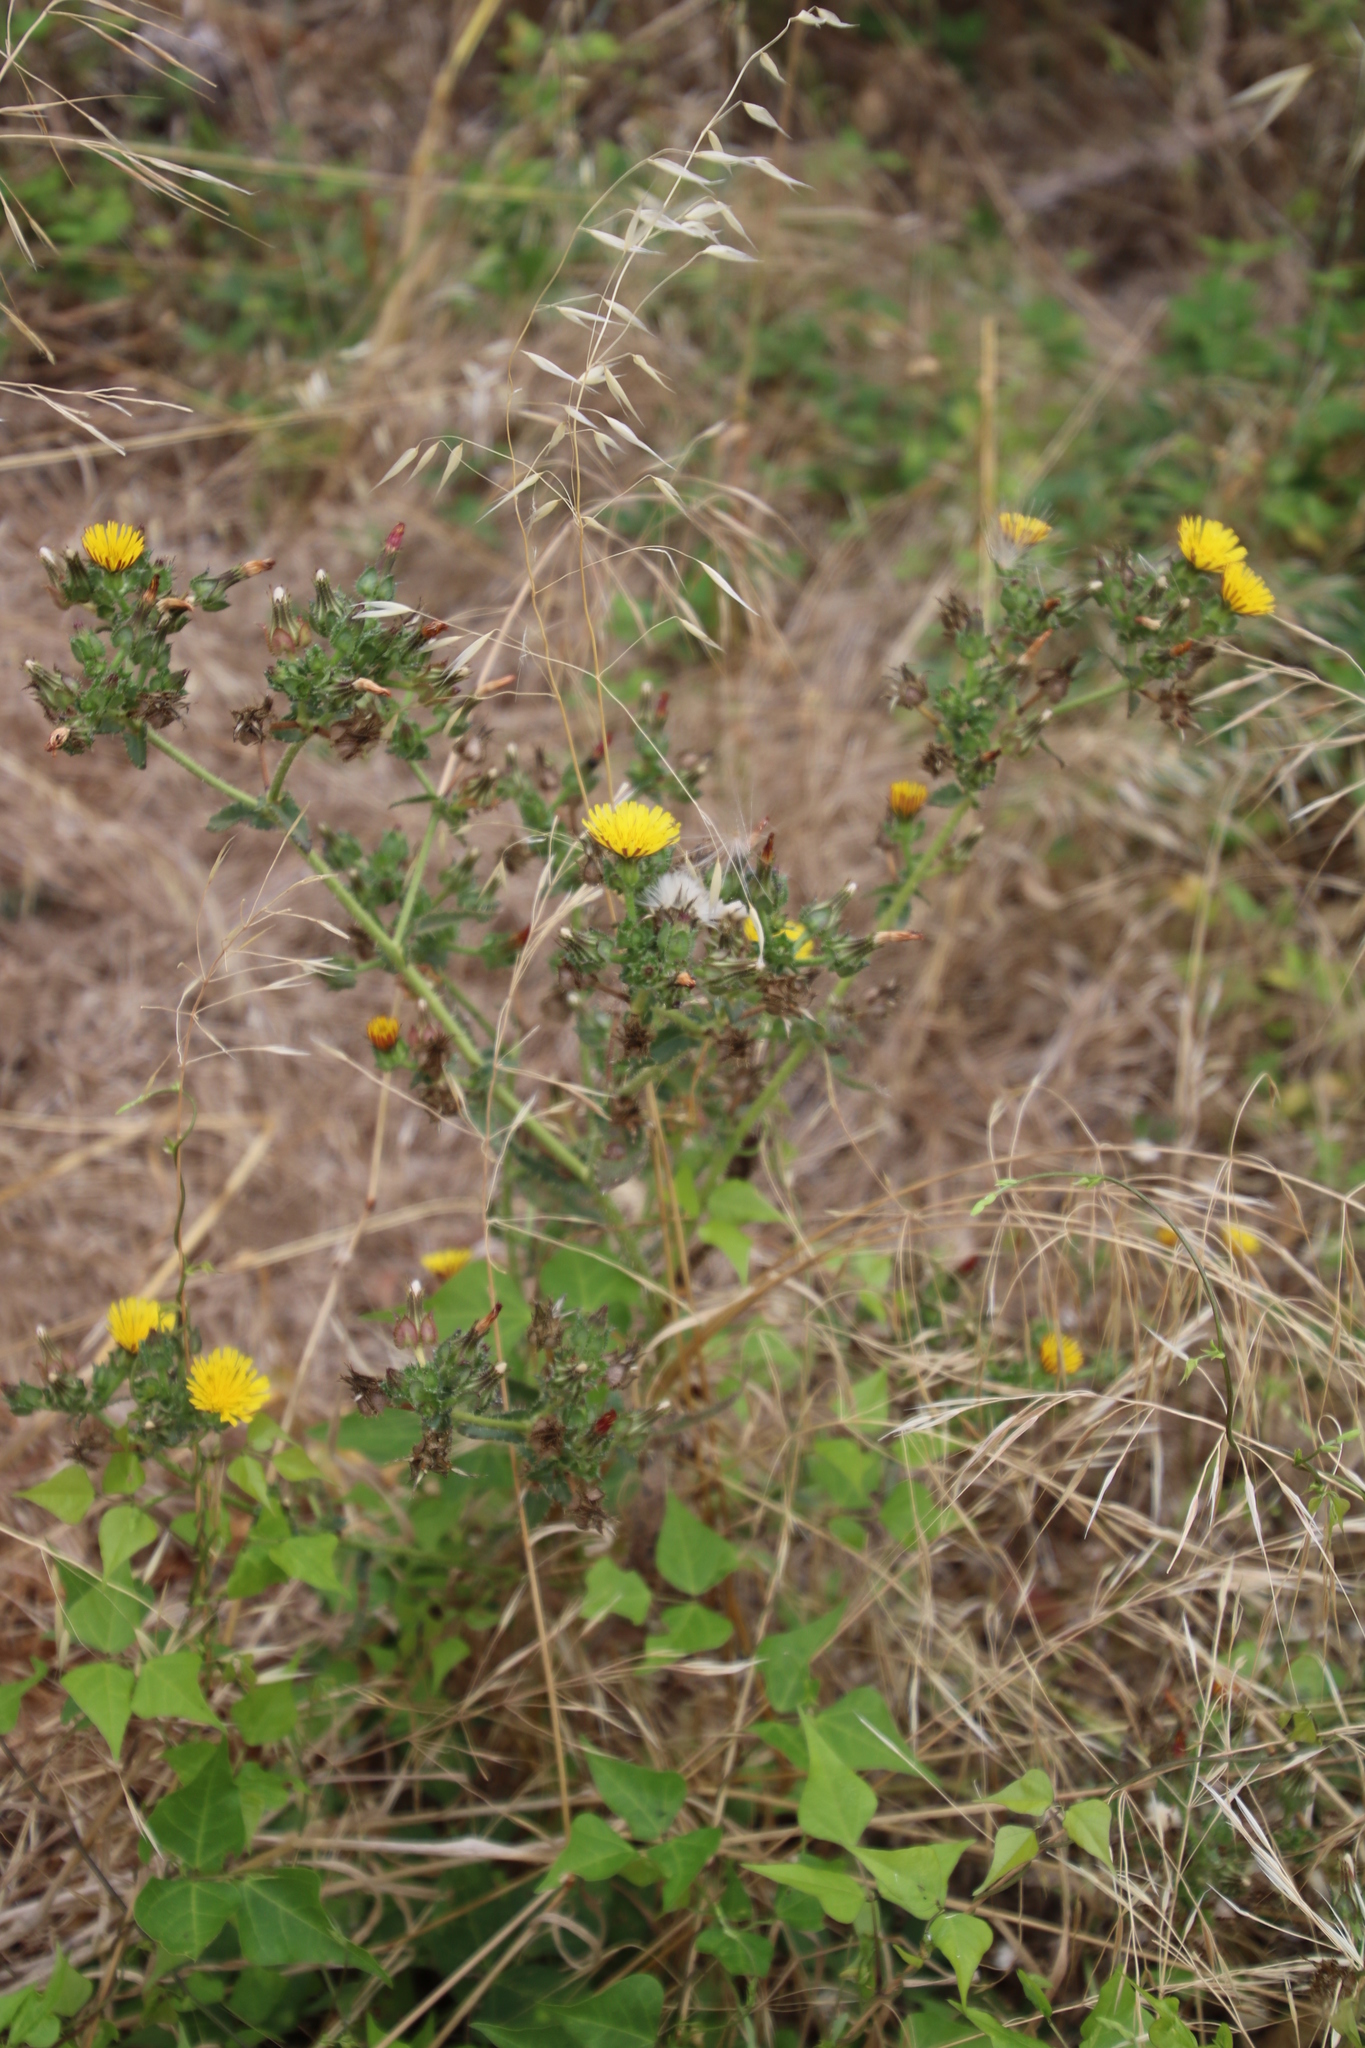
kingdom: Plantae
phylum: Tracheophyta
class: Magnoliopsida
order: Asterales
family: Asteraceae
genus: Helminthotheca
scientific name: Helminthotheca echioides
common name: Ox-tongue
